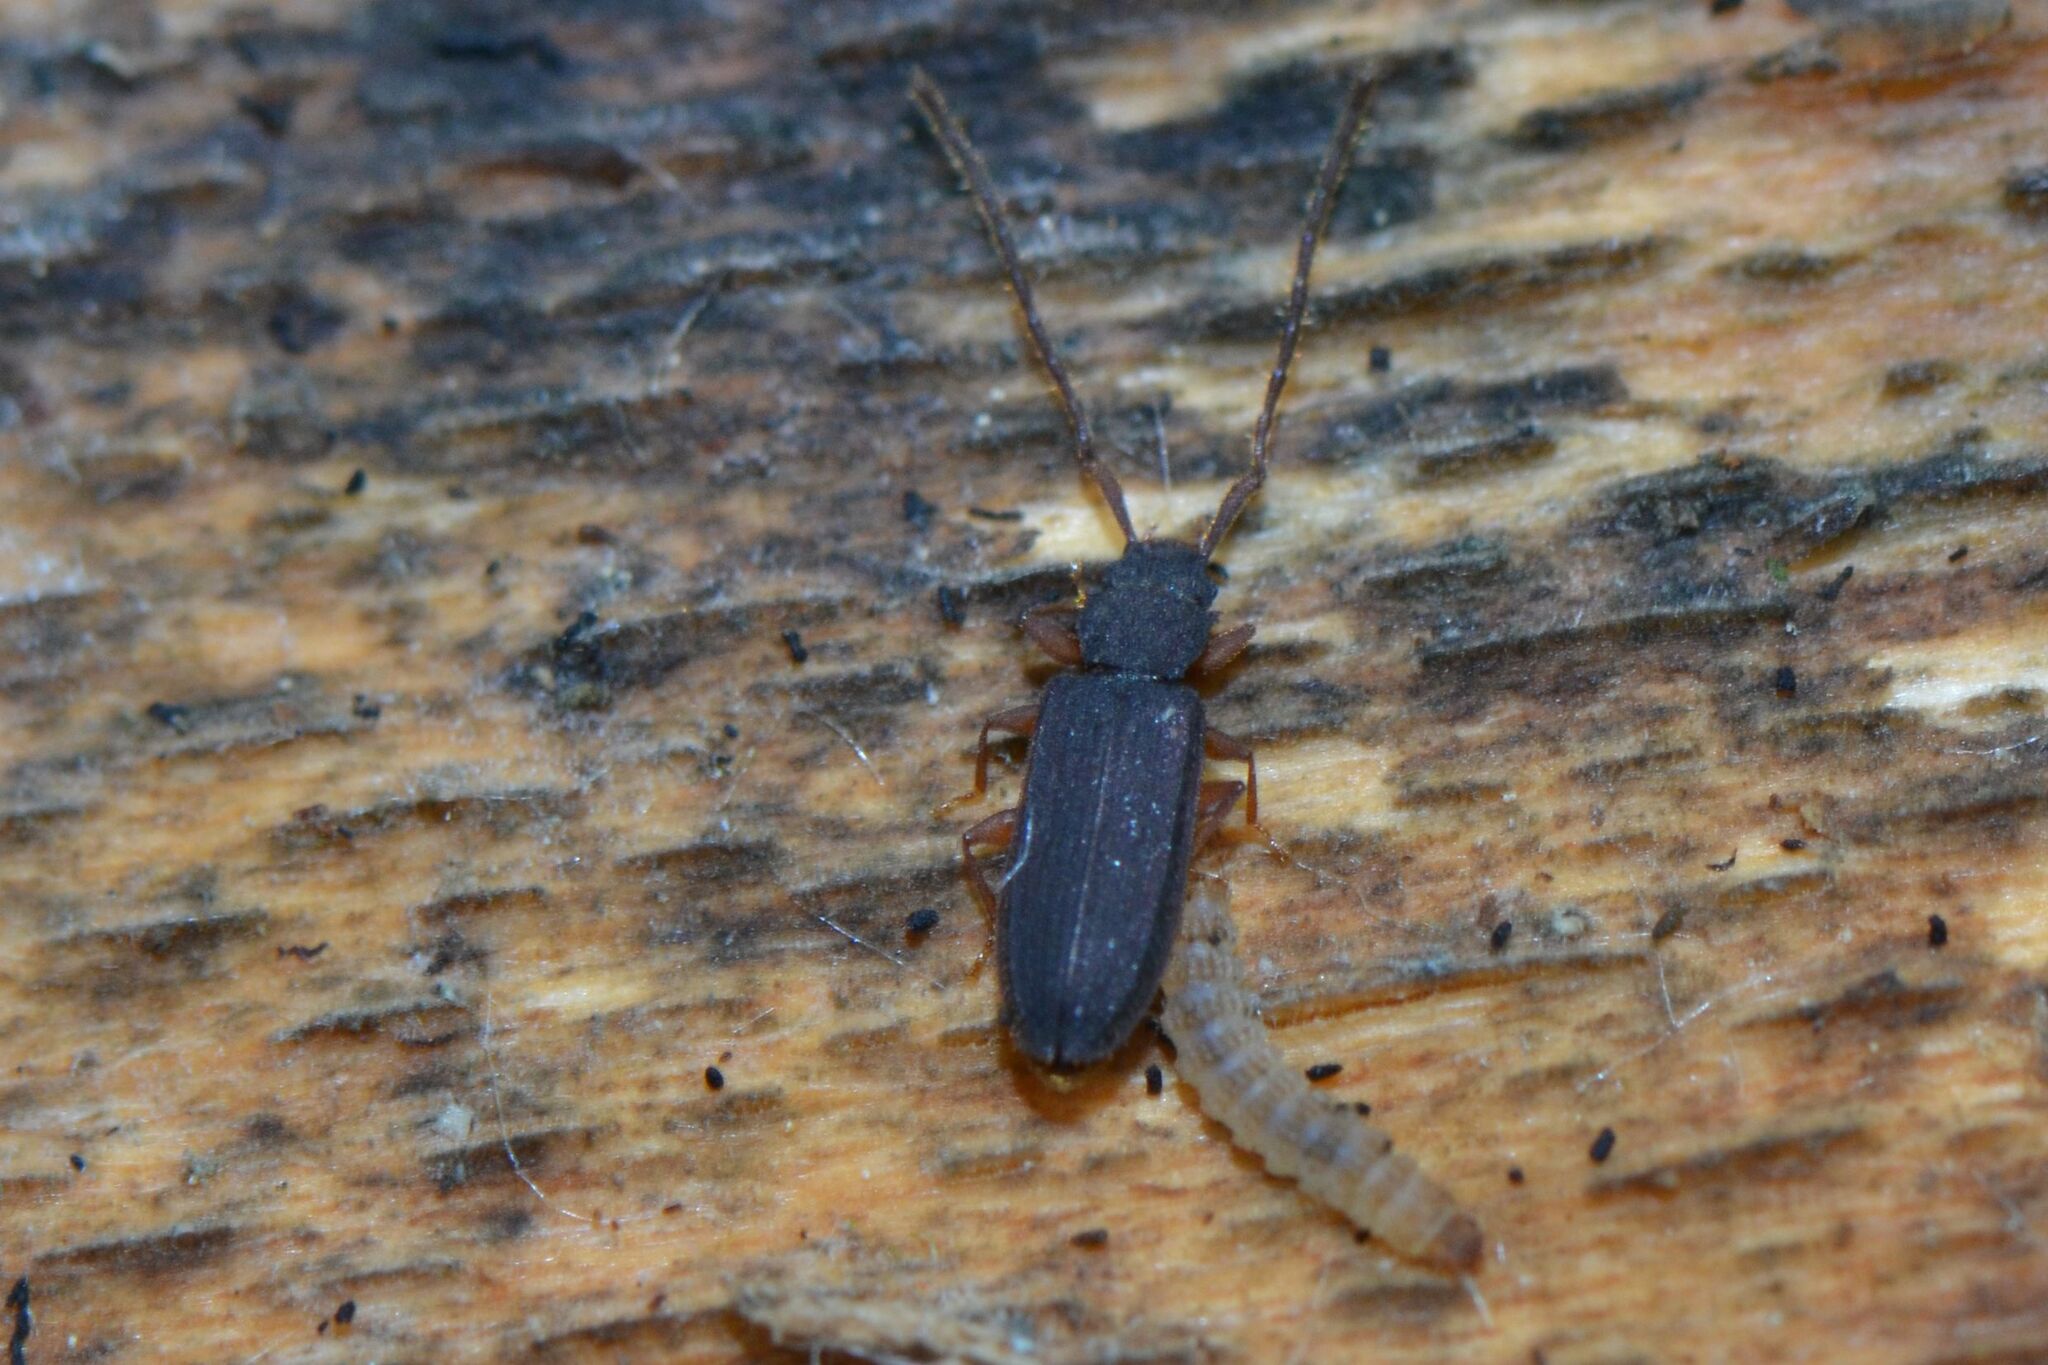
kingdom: Animalia
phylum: Arthropoda
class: Insecta
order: Coleoptera
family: Silvanidae
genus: Uleiota
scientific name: Uleiota planatus
